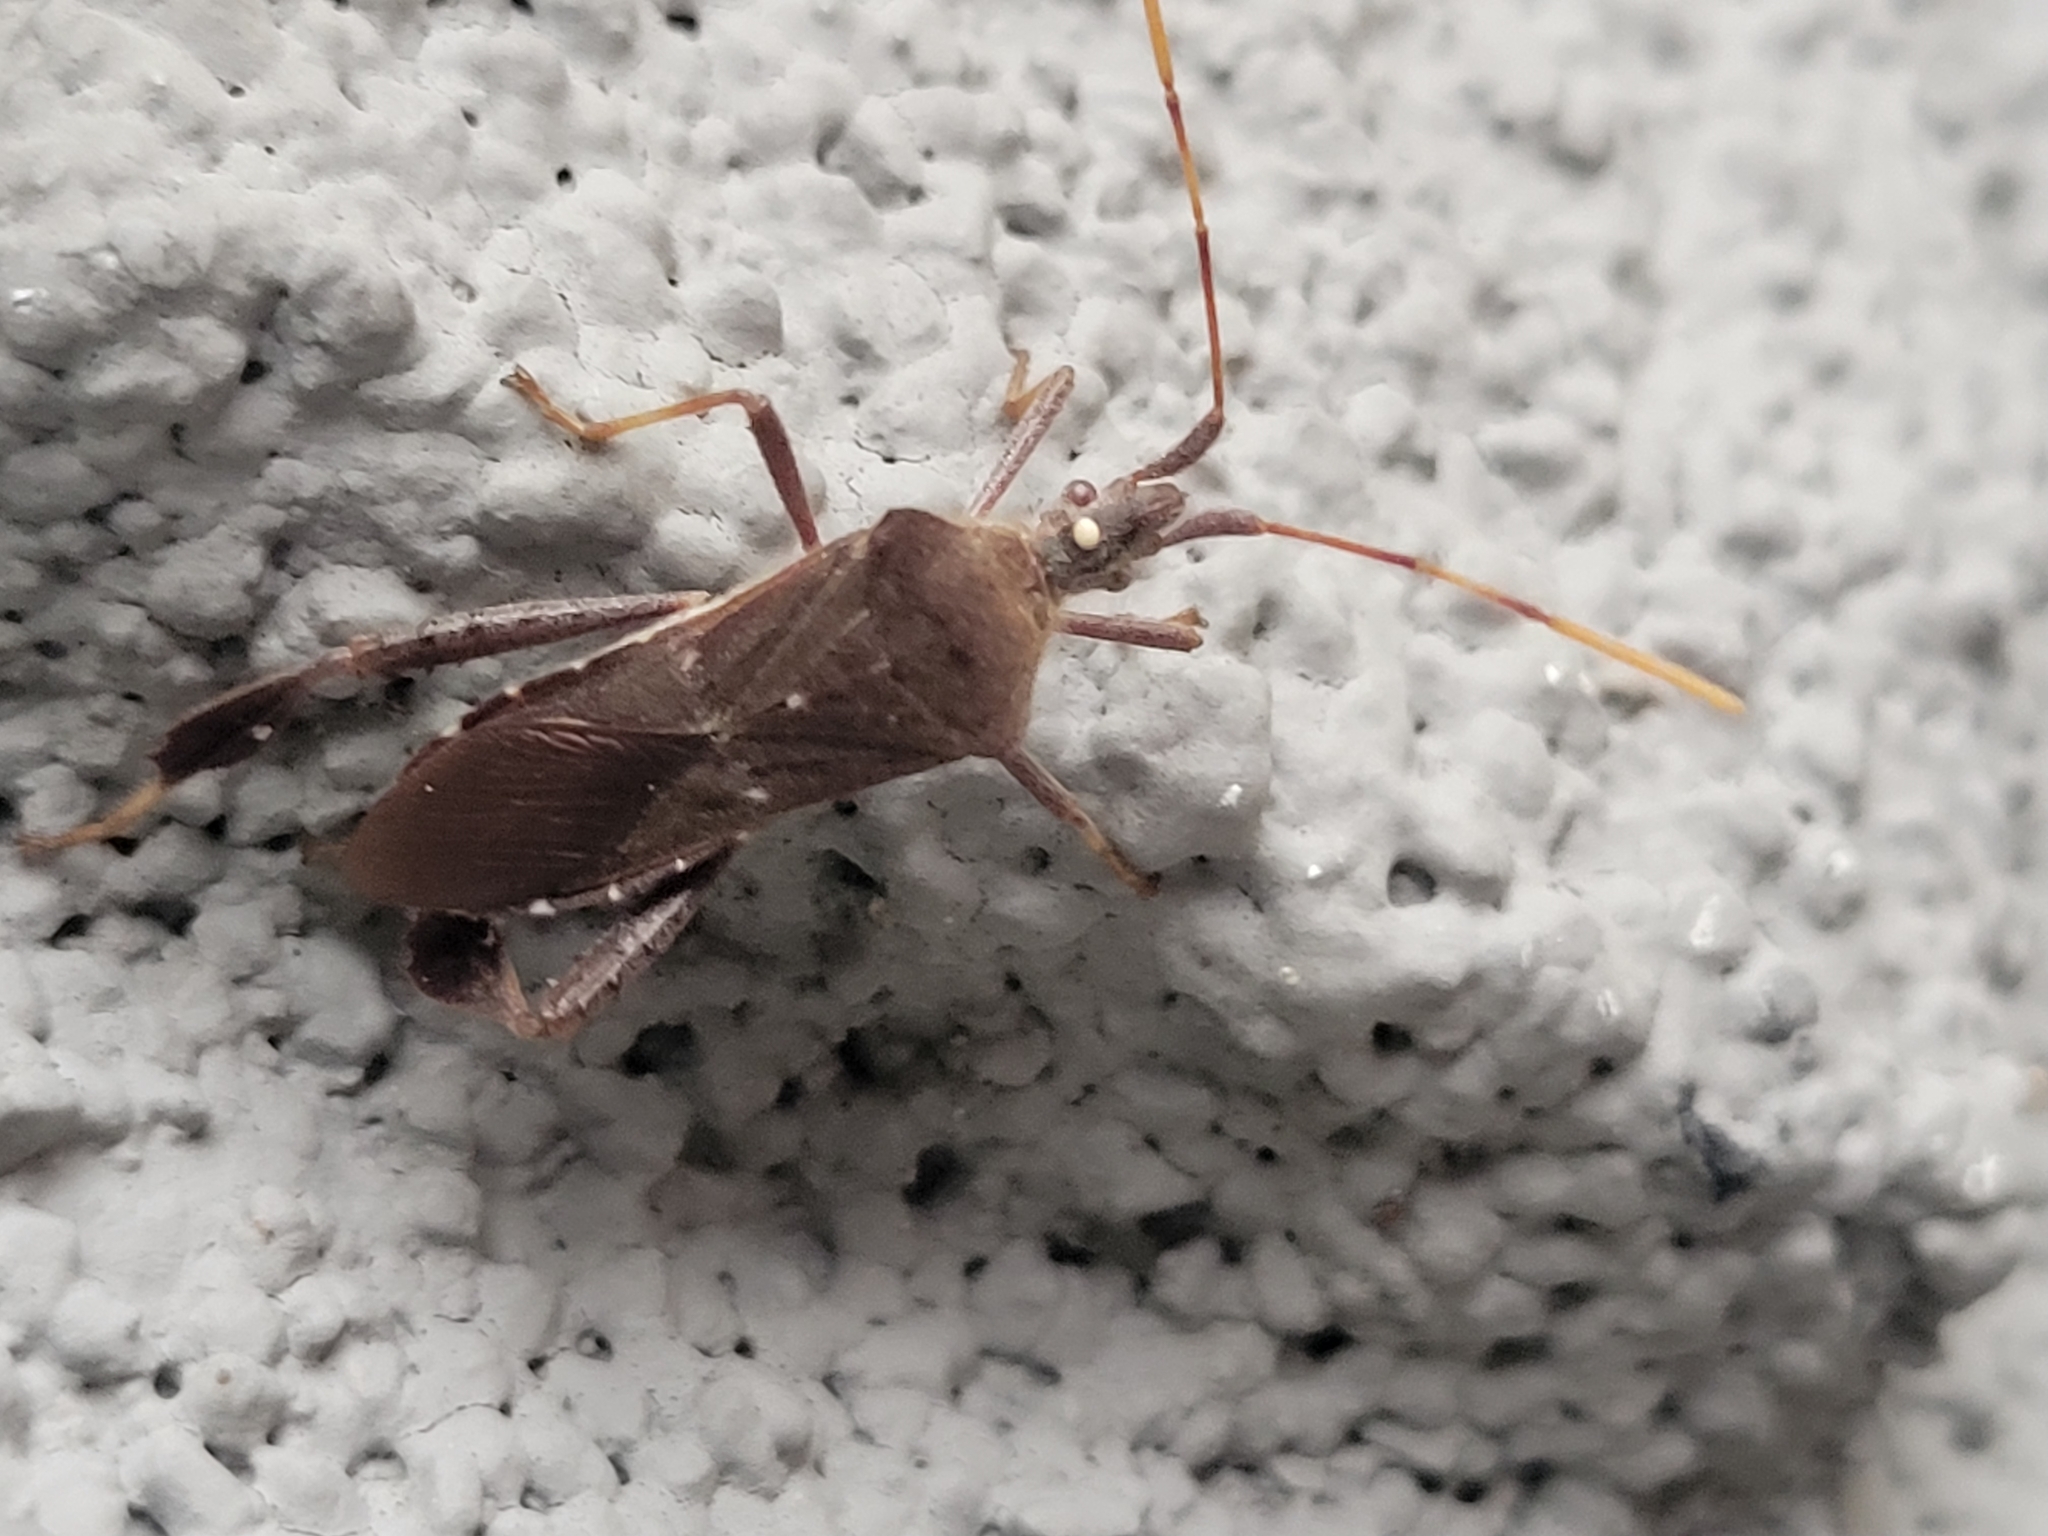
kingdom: Animalia
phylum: Arthropoda
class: Insecta
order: Hemiptera
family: Coreidae
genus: Leptoglossus
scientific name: Leptoglossus oppositus
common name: Northern leaf-footed bug
